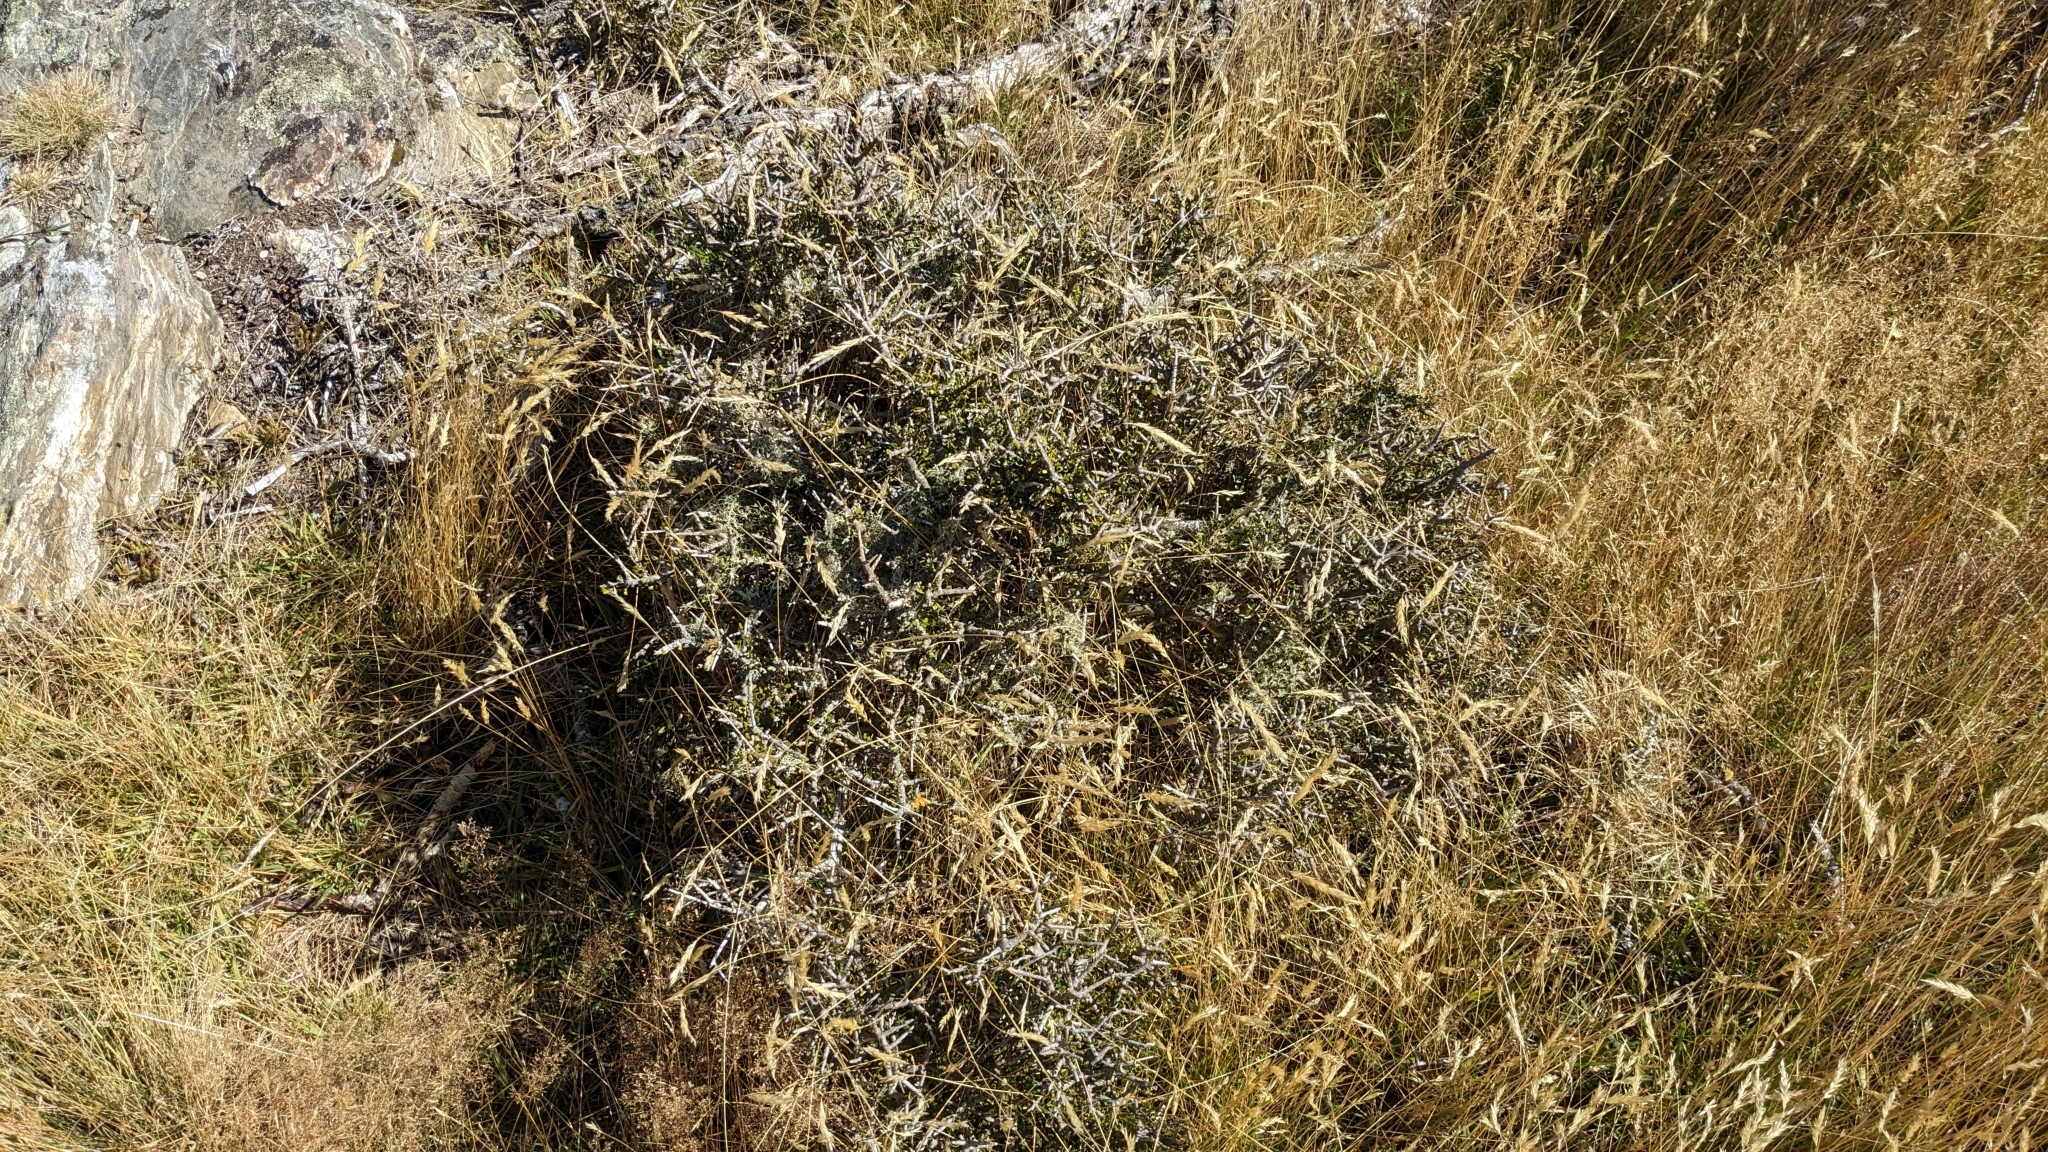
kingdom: Plantae
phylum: Tracheophyta
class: Magnoliopsida
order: Malpighiales
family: Violaceae
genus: Melicytus
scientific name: Melicytus alpinus
